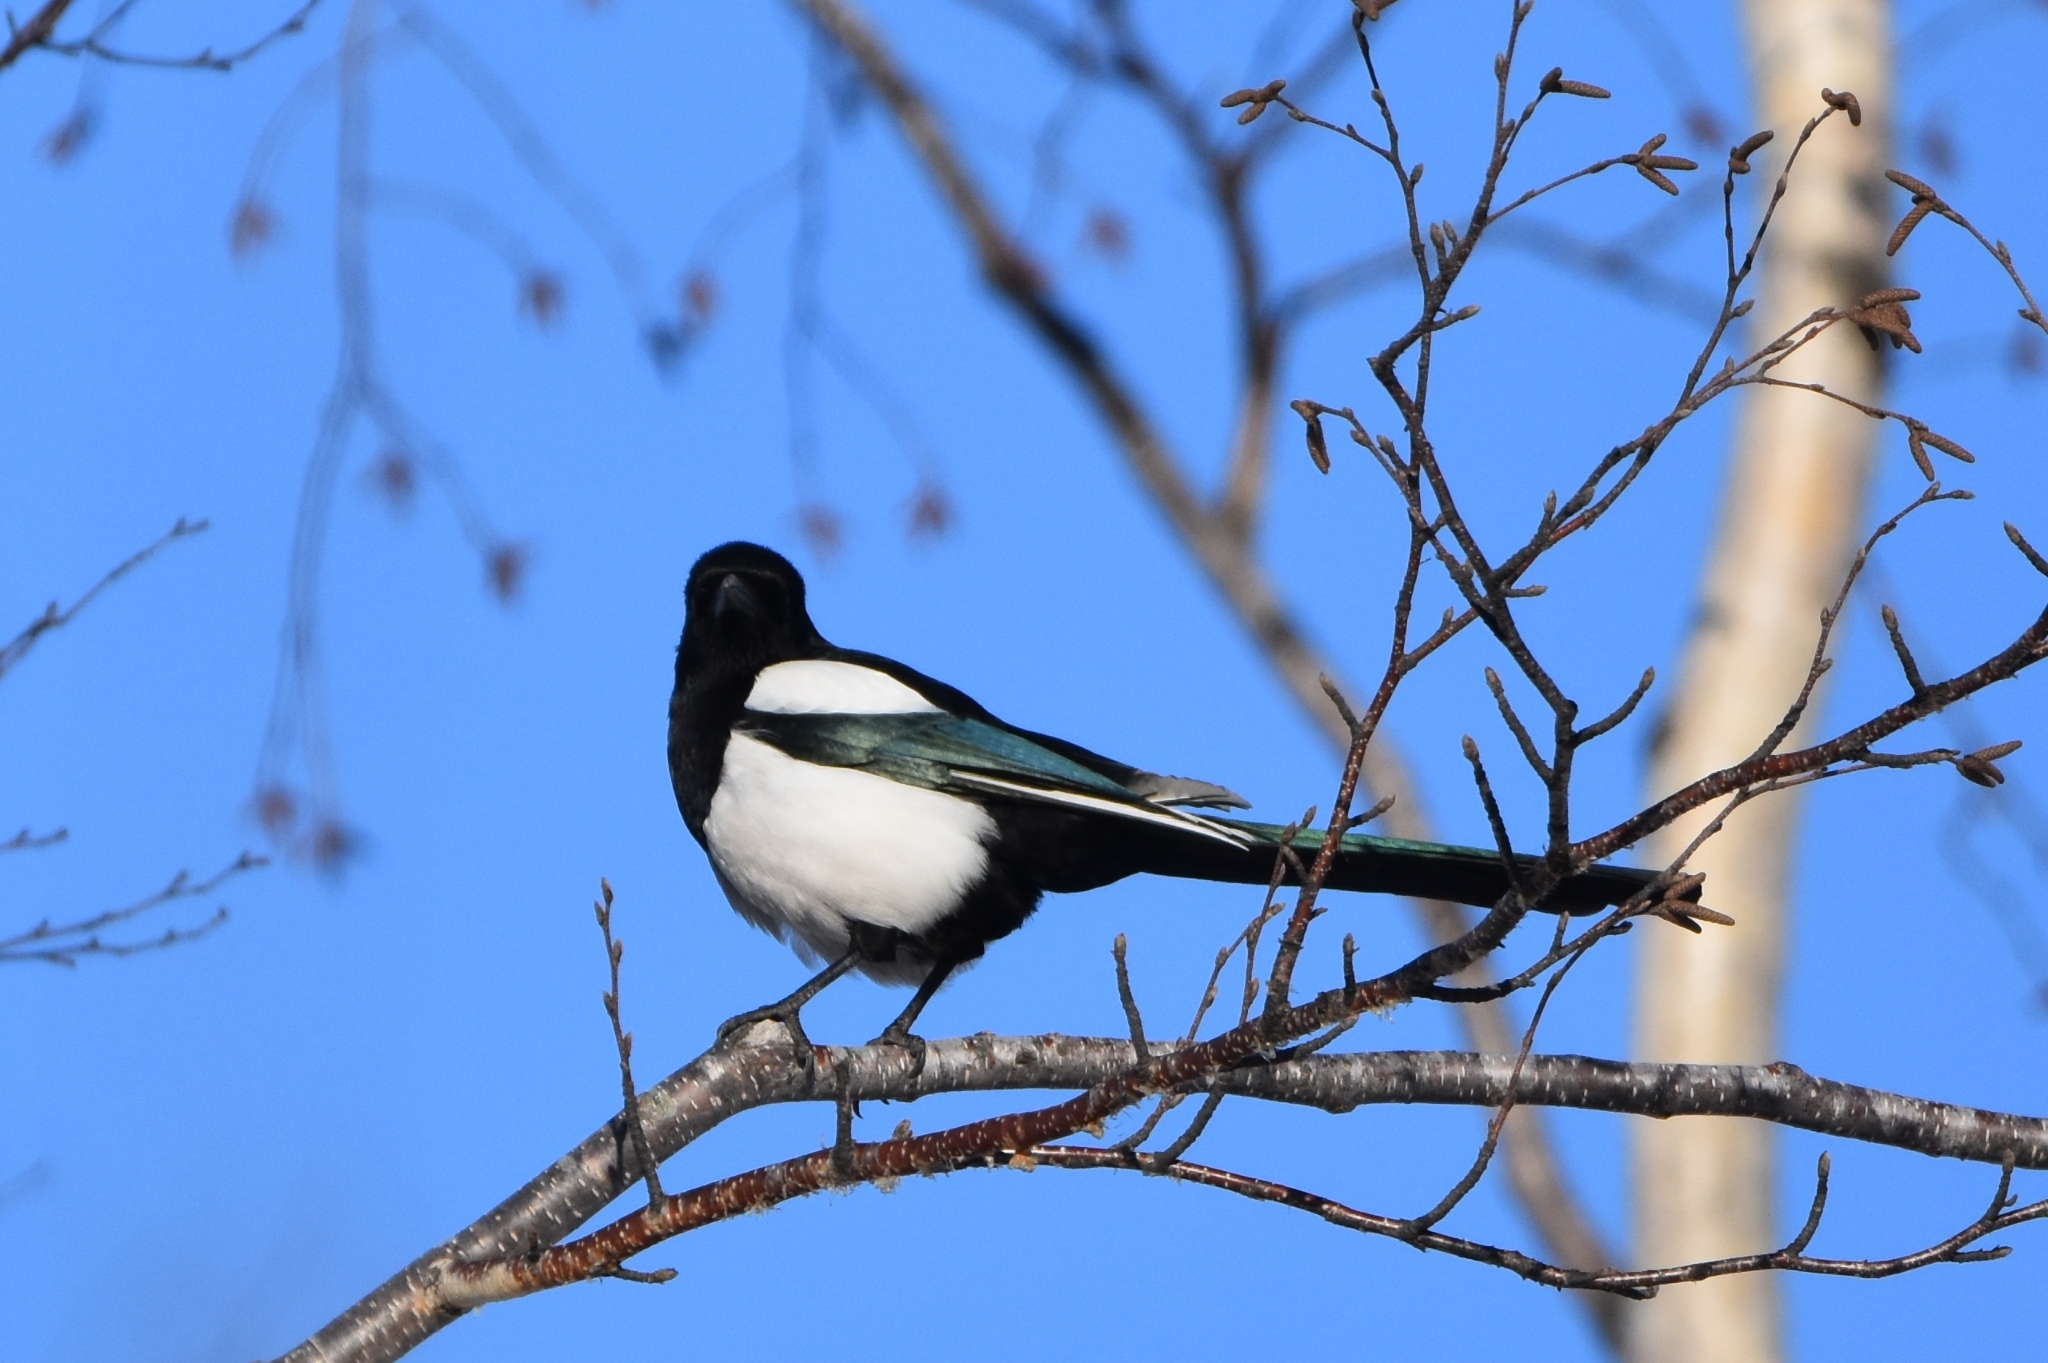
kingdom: Animalia
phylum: Chordata
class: Aves
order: Passeriformes
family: Corvidae
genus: Pica
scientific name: Pica pica
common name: Eurasian magpie
